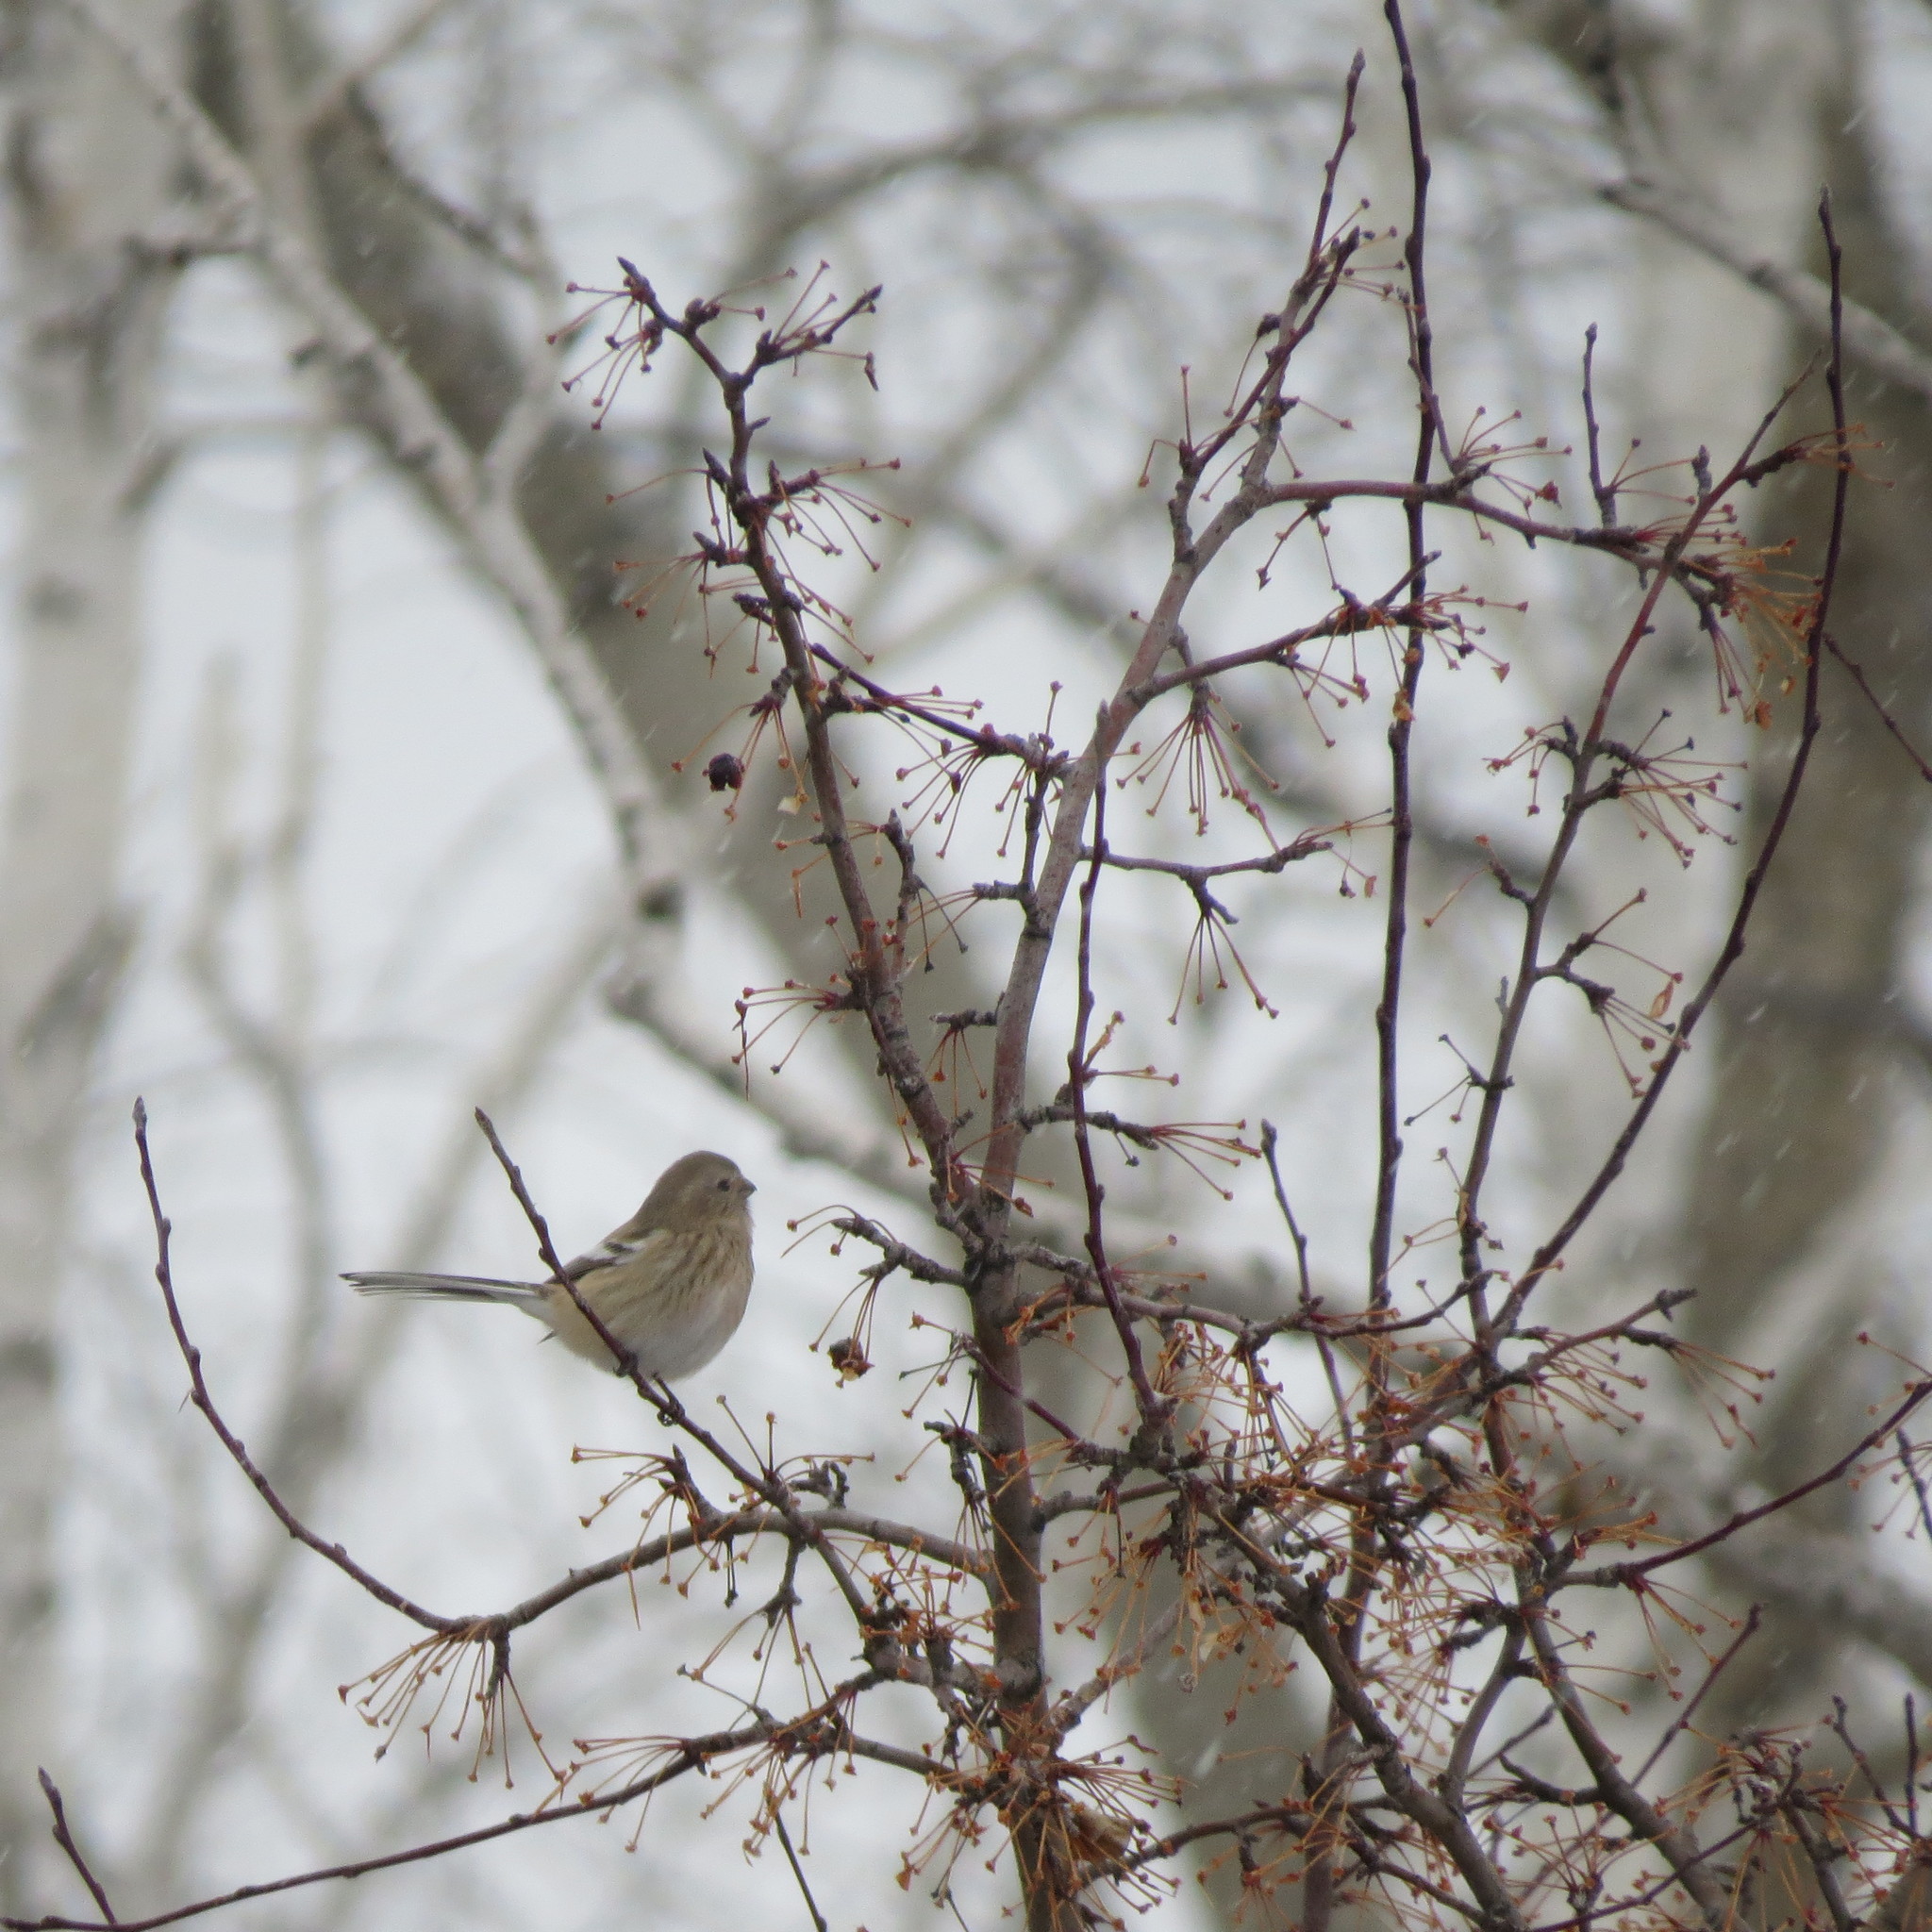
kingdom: Animalia
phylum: Chordata
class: Aves
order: Passeriformes
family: Fringillidae
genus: Carpodacus
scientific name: Carpodacus sibiricus
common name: Long-tailed rosefinch
